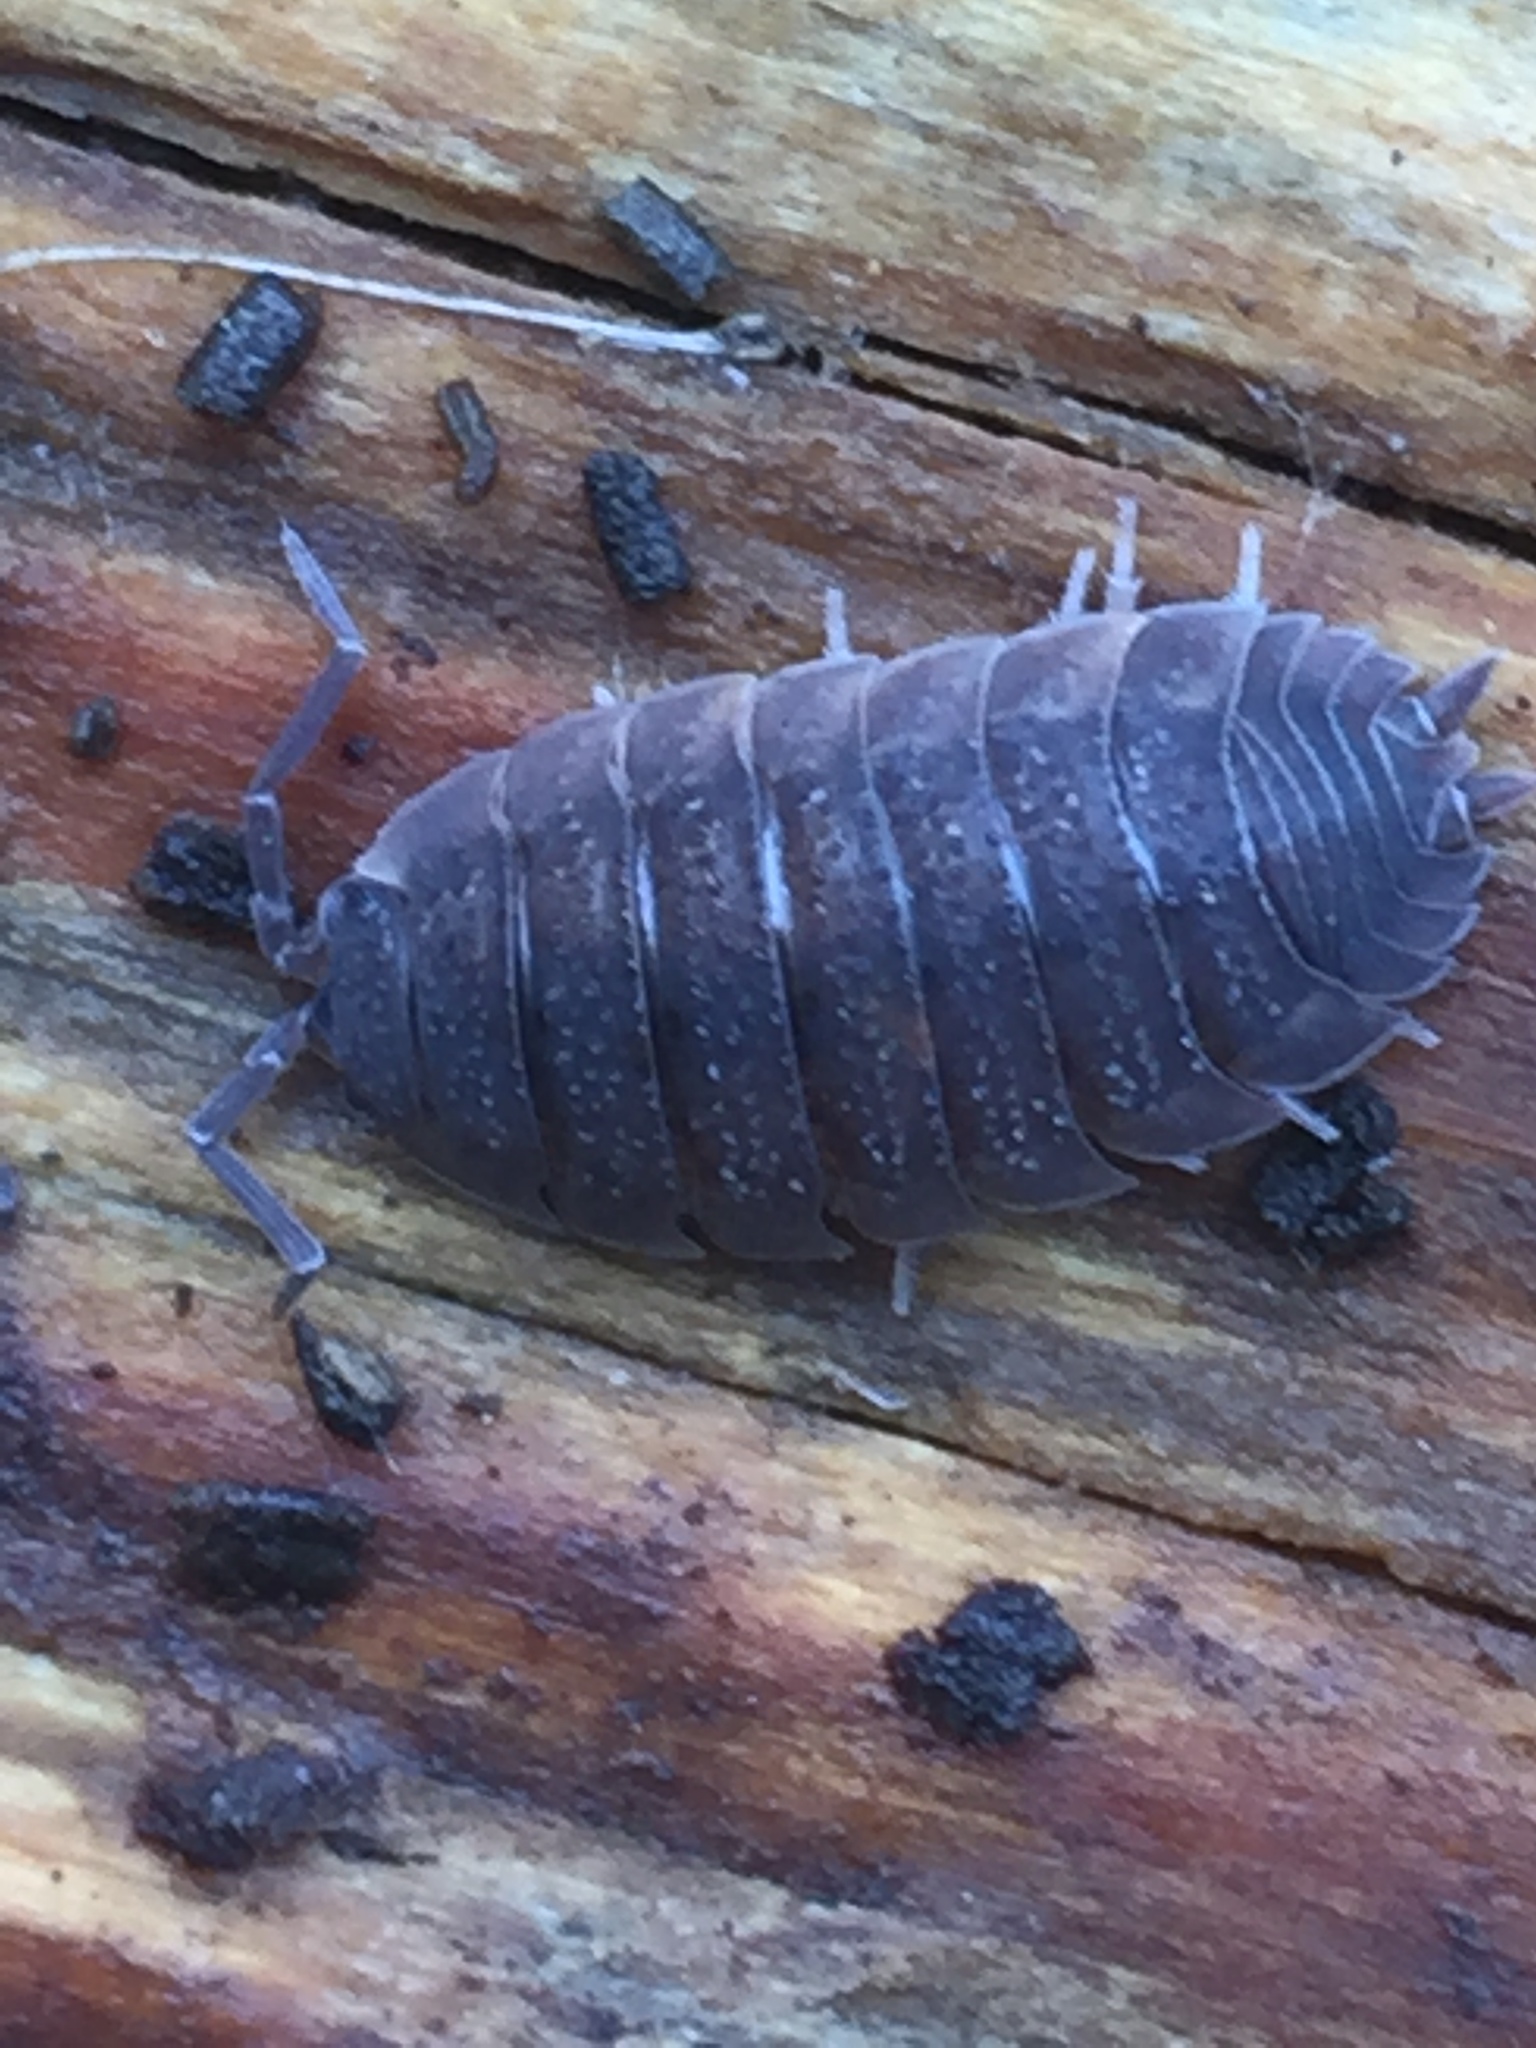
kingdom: Animalia
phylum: Arthropoda
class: Malacostraca
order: Isopoda
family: Porcellionidae
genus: Porcellio
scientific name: Porcellio scaber
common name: Common rough woodlouse
